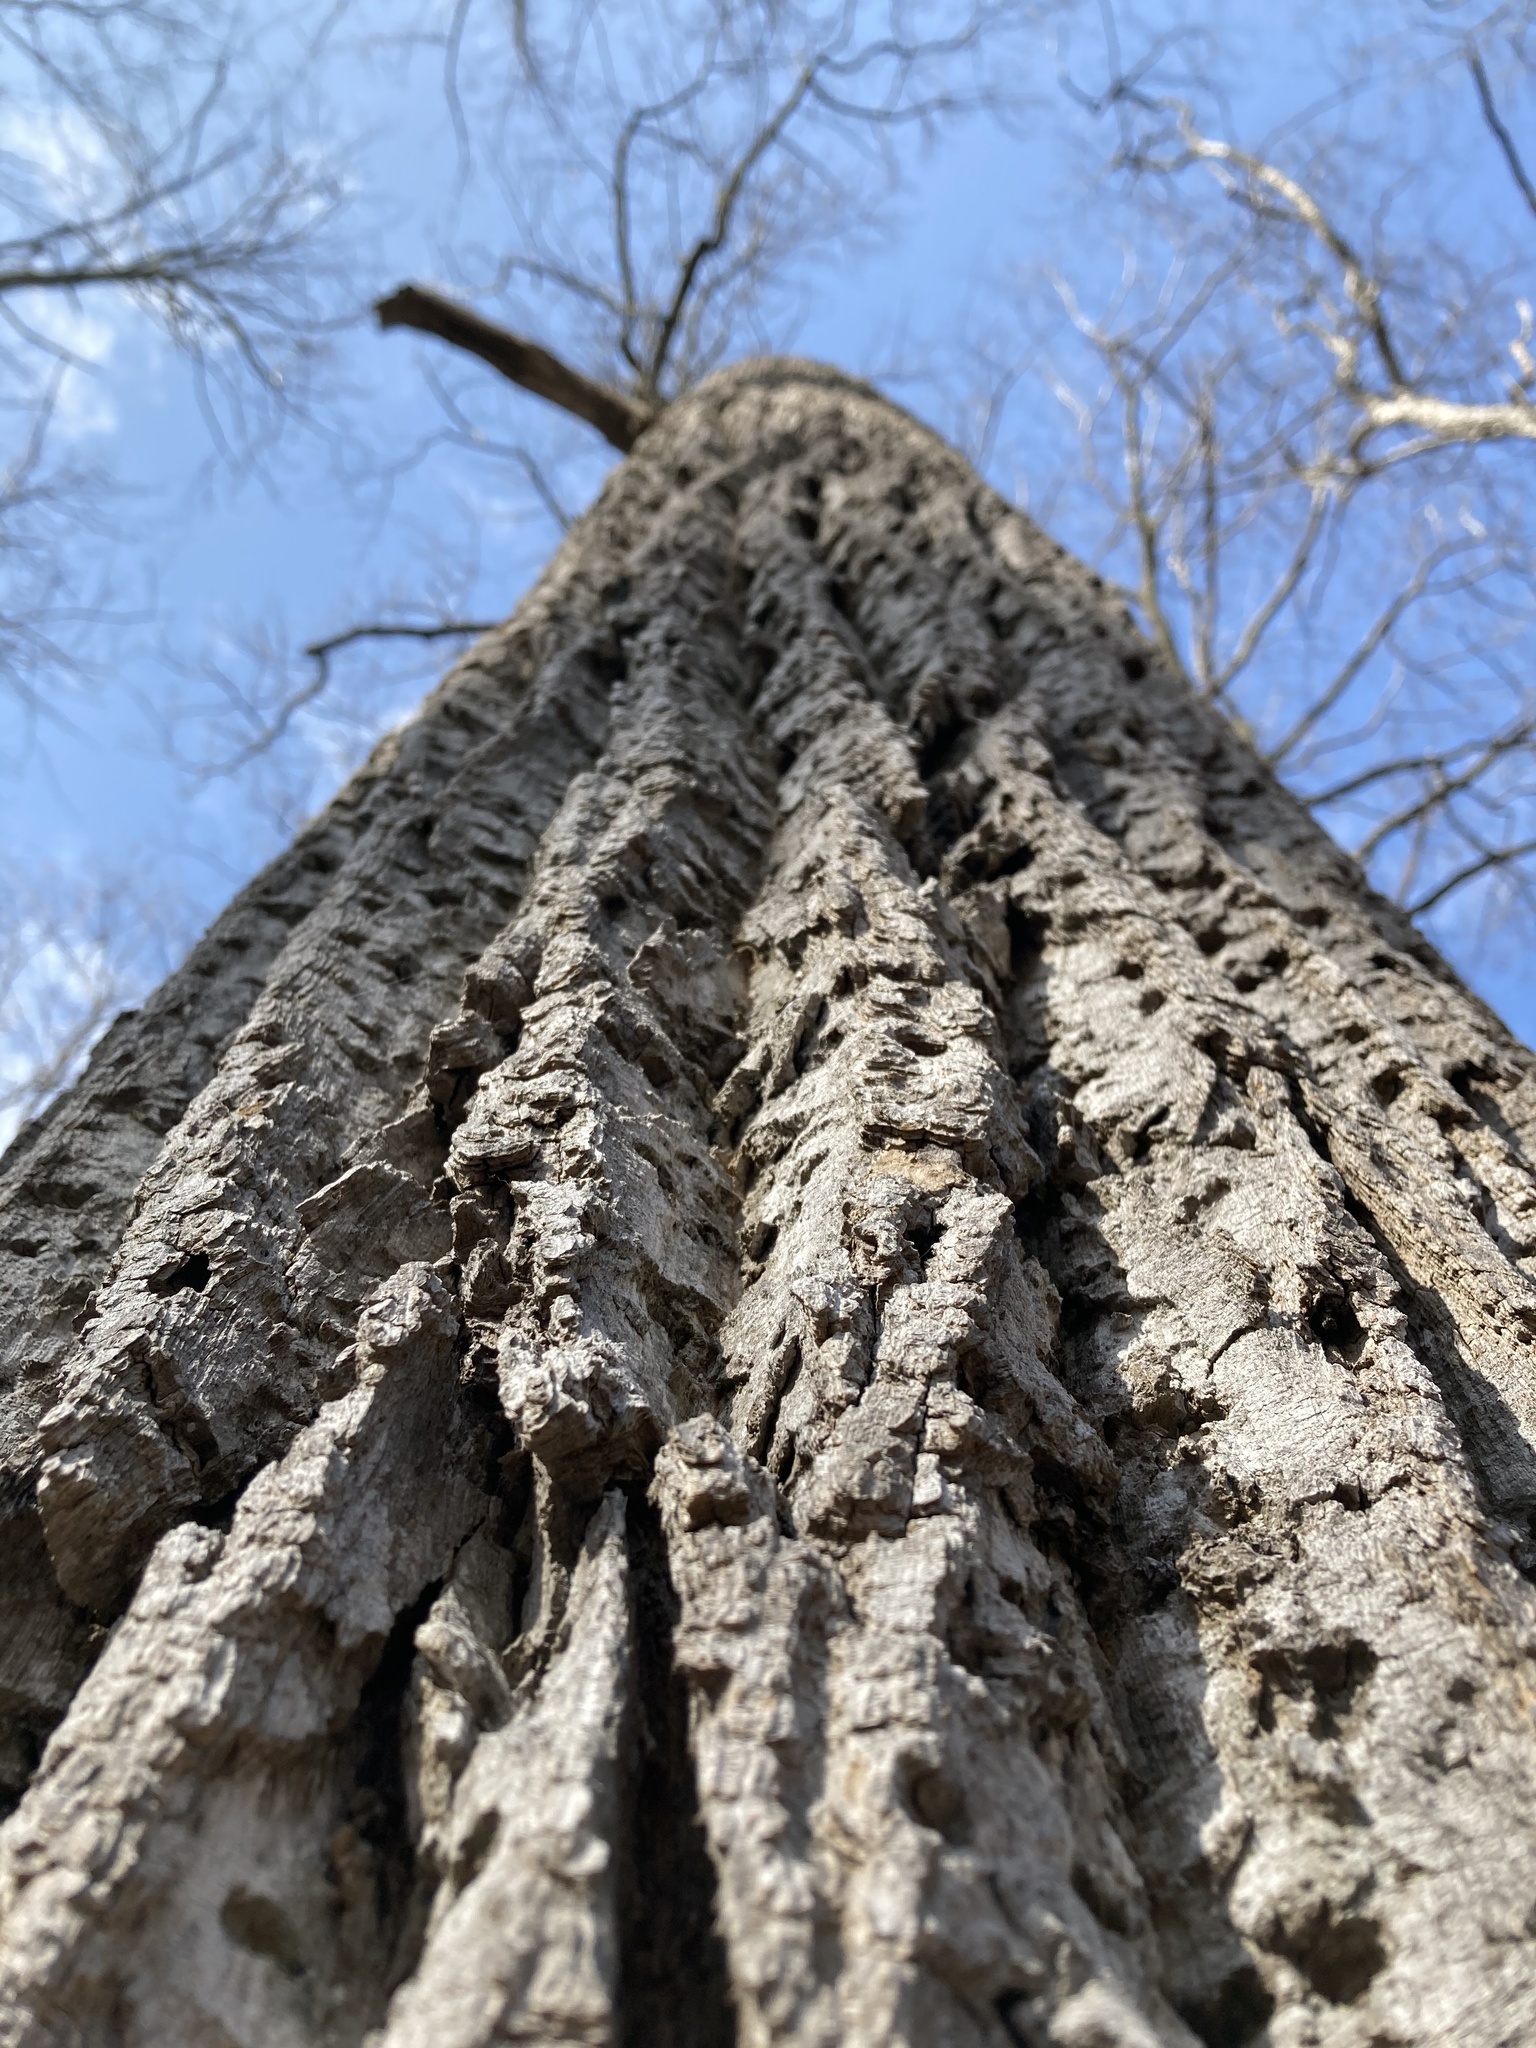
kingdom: Plantae
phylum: Tracheophyta
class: Magnoliopsida
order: Magnoliales
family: Magnoliaceae
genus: Liriodendron
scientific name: Liriodendron tulipifera
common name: Tulip tree
